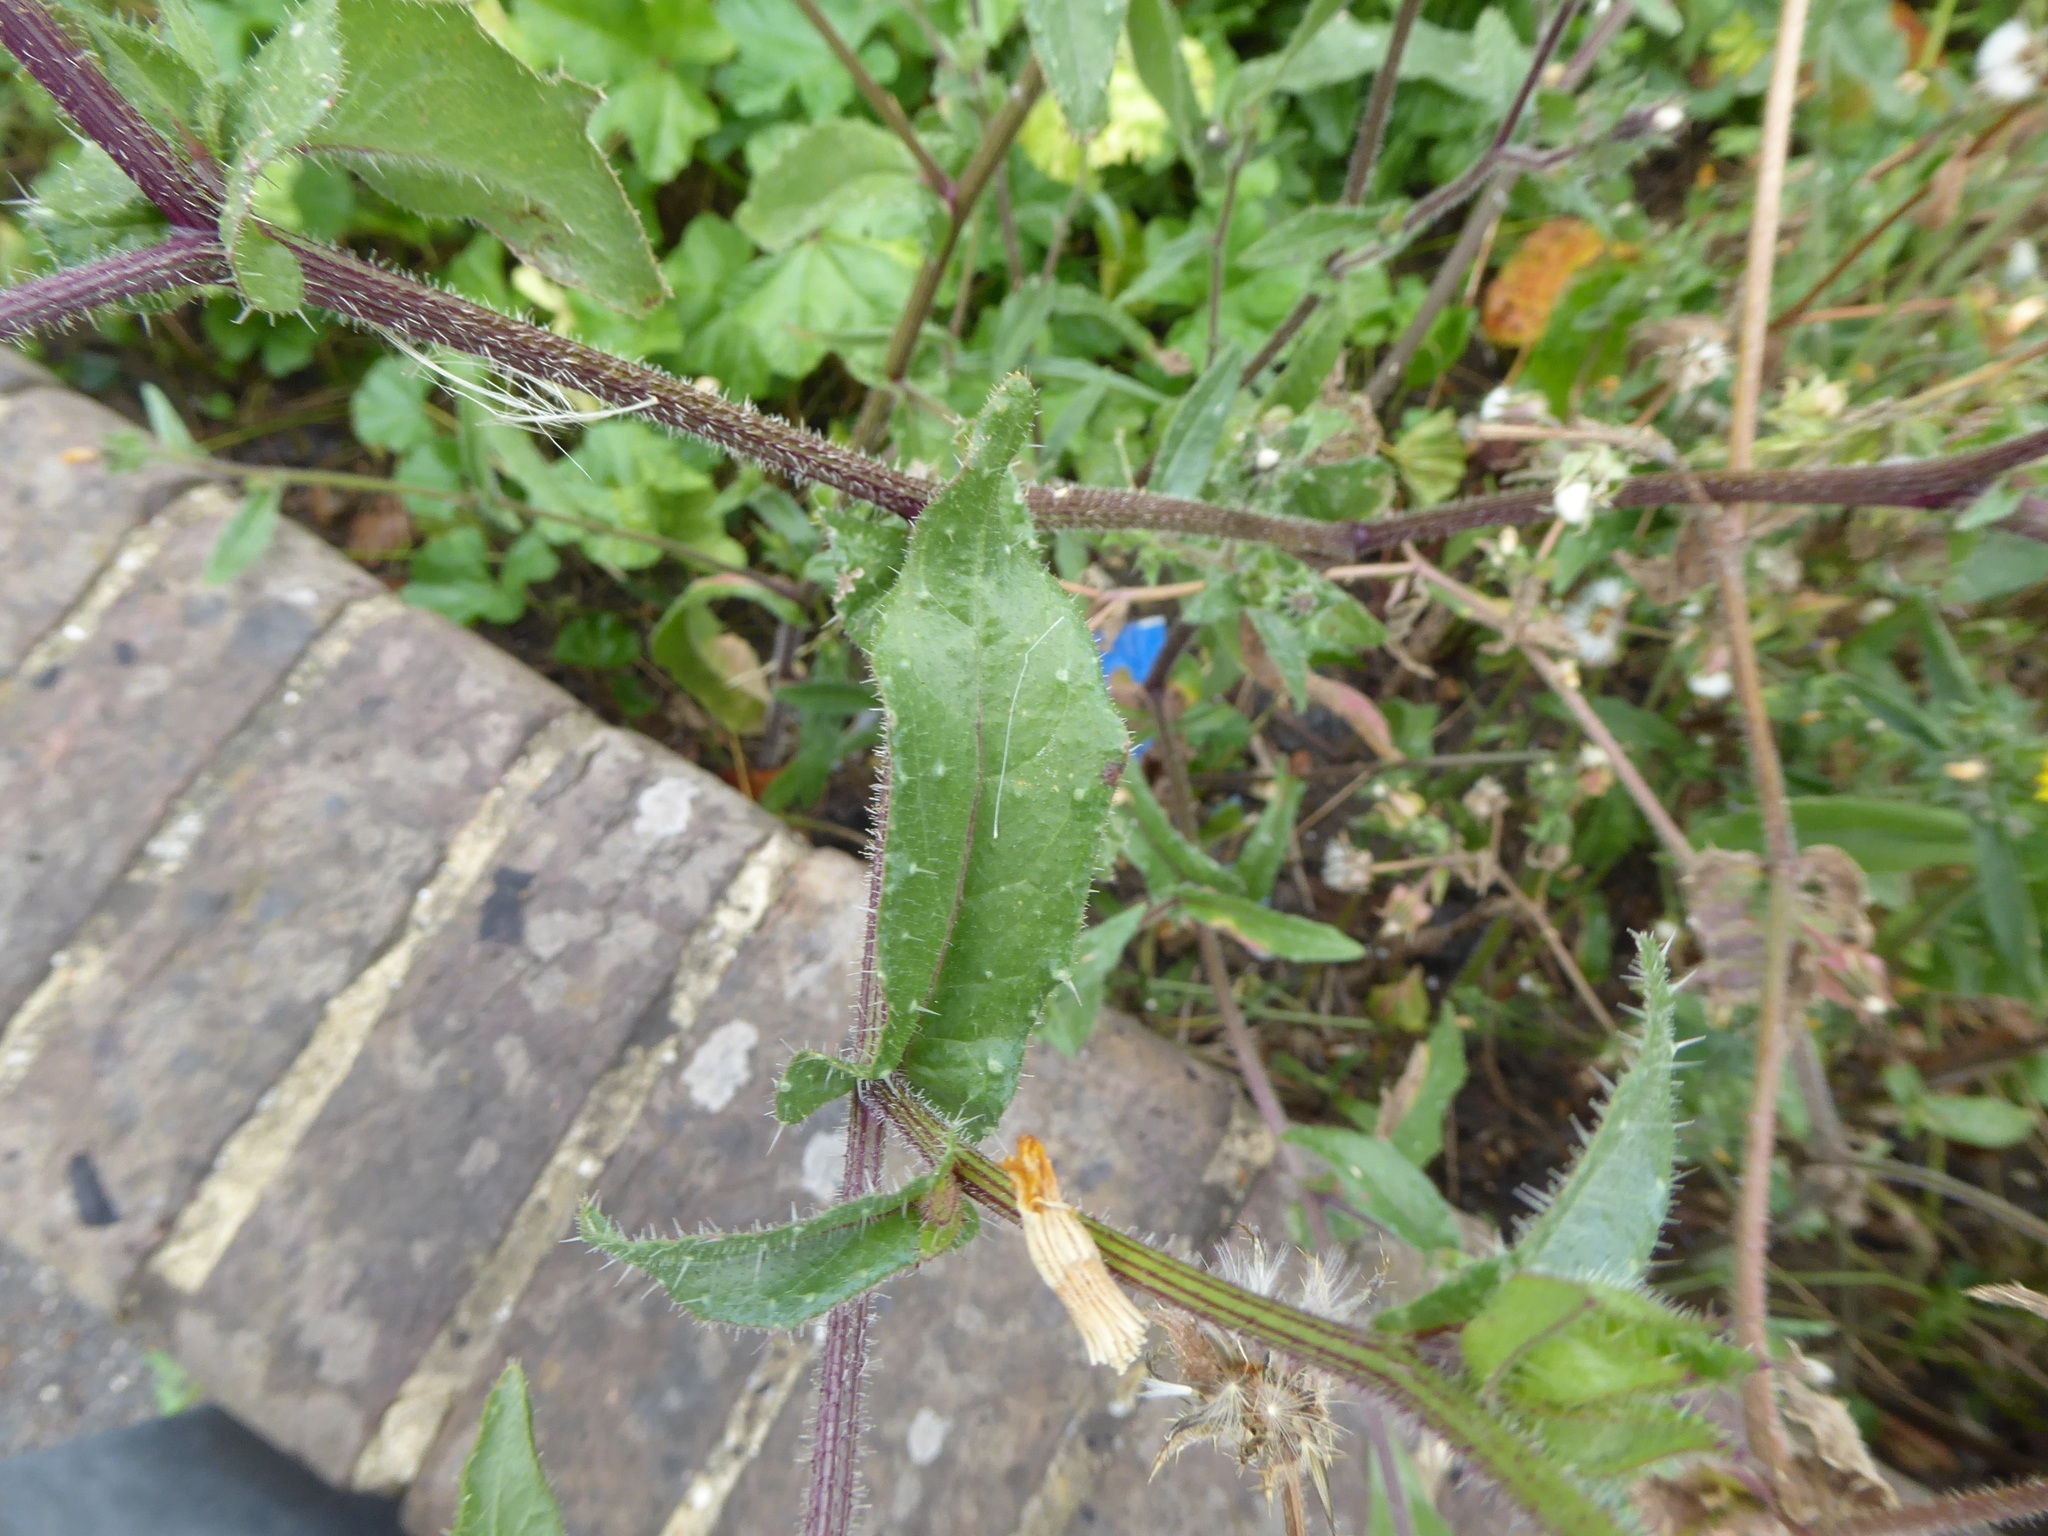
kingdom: Plantae
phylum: Tracheophyta
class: Magnoliopsida
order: Asterales
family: Asteraceae
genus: Helminthotheca
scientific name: Helminthotheca echioides
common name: Ox-tongue
